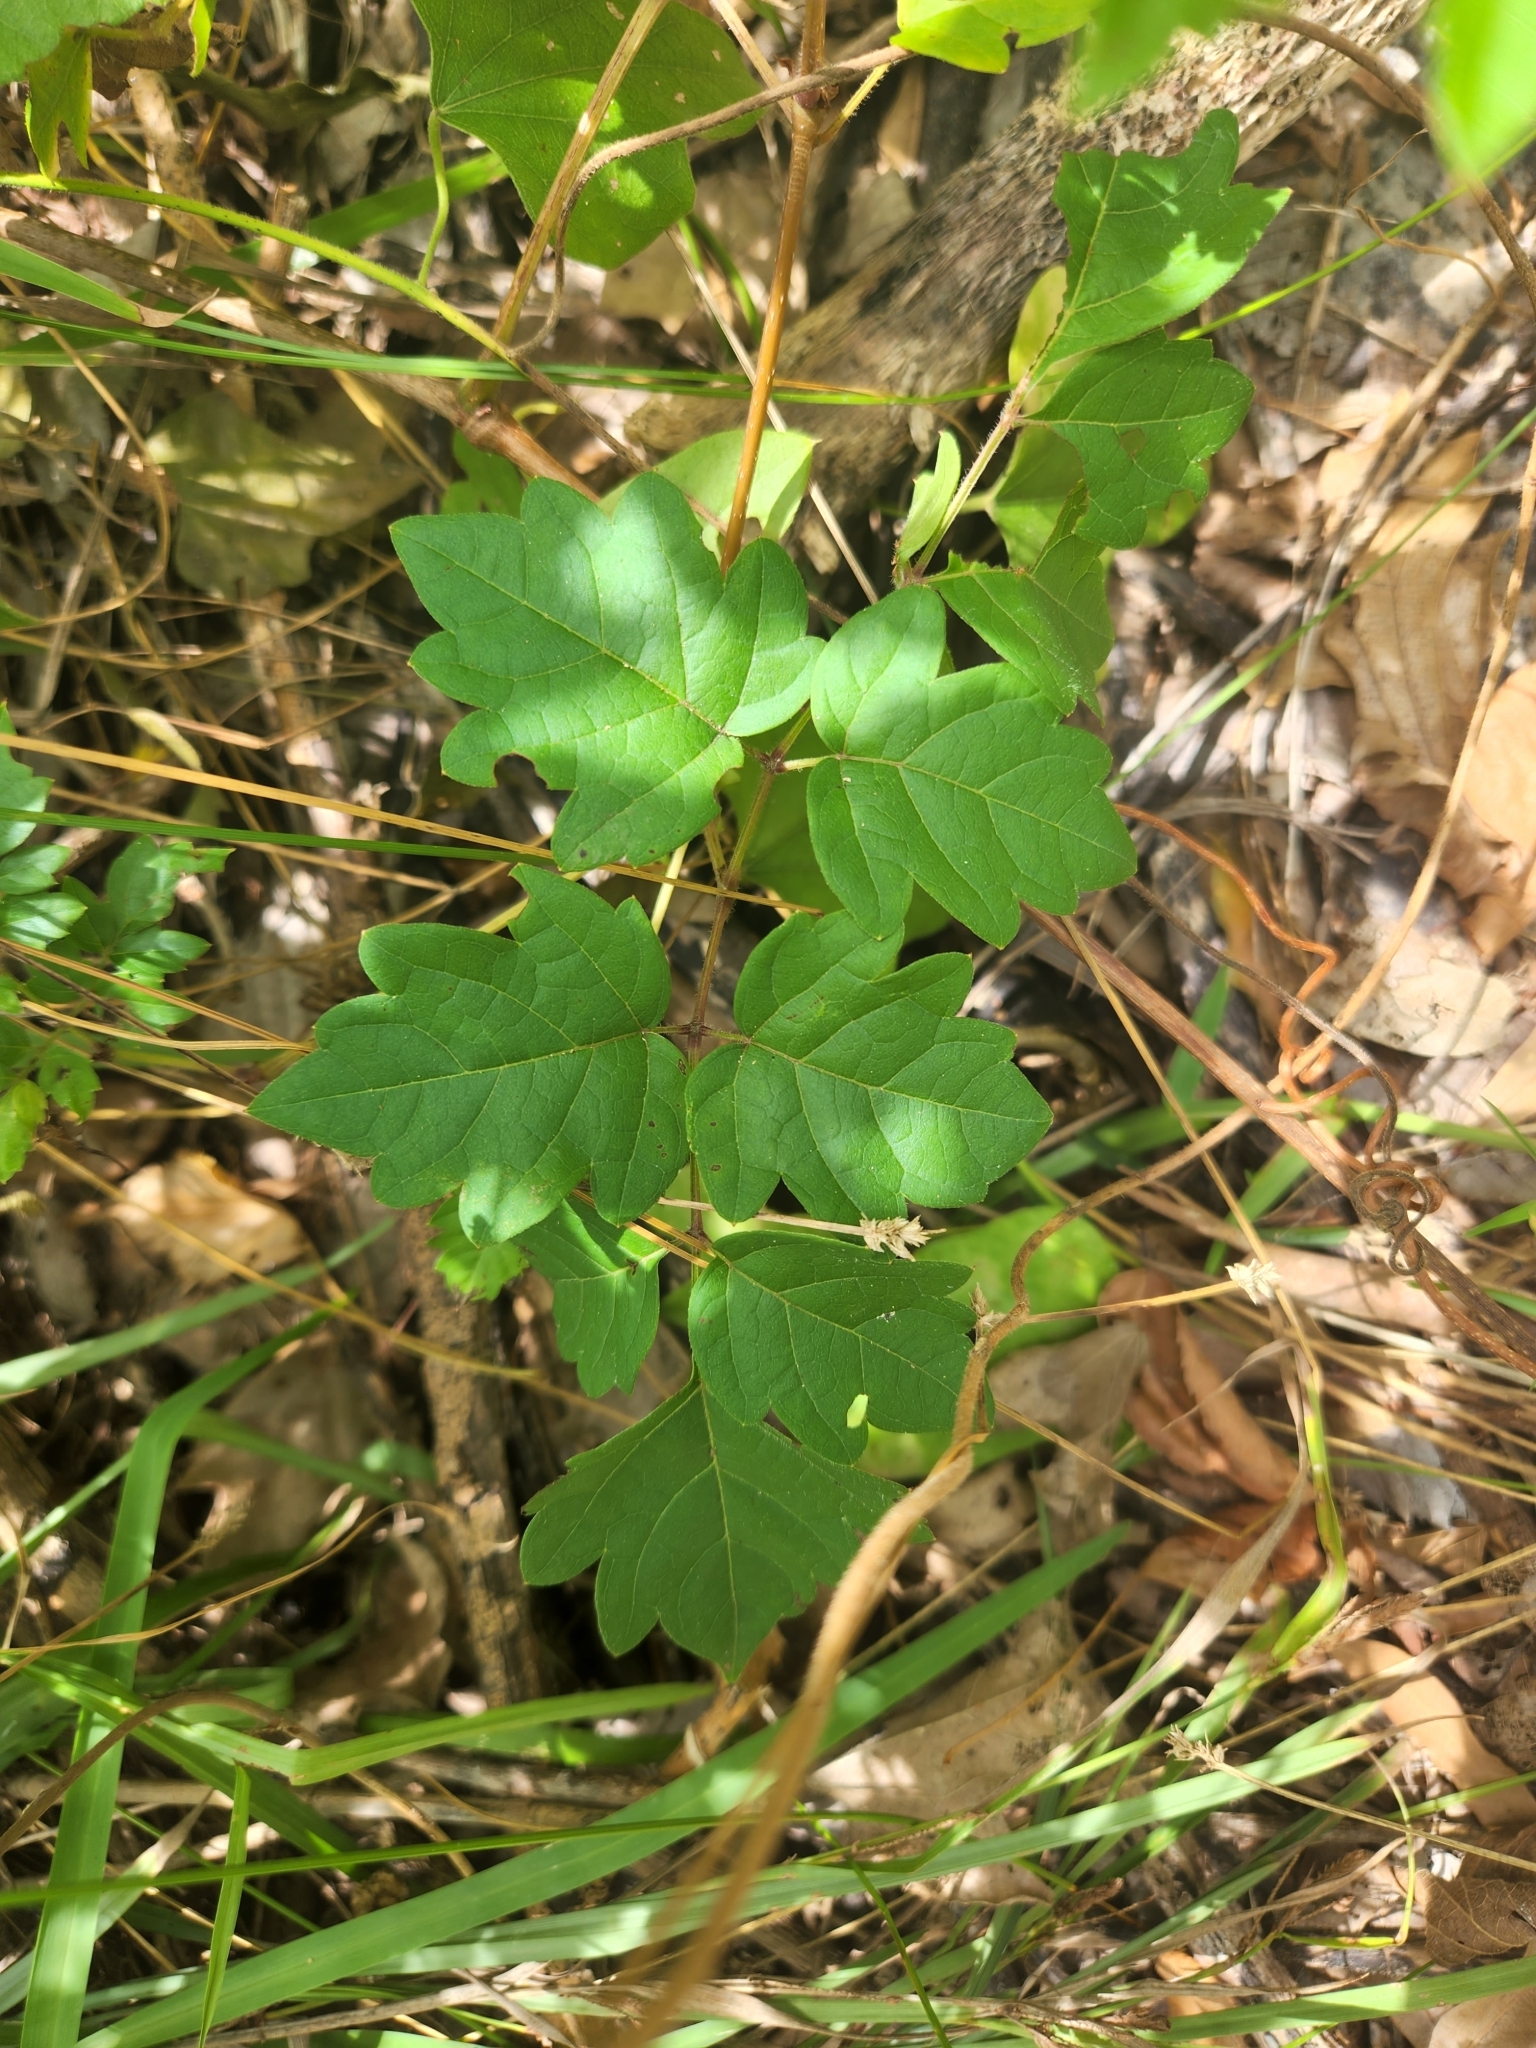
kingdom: Plantae
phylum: Tracheophyta
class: Magnoliopsida
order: Vitales
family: Vitaceae
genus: Nekemias
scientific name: Nekemias arborea
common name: Peppervine
